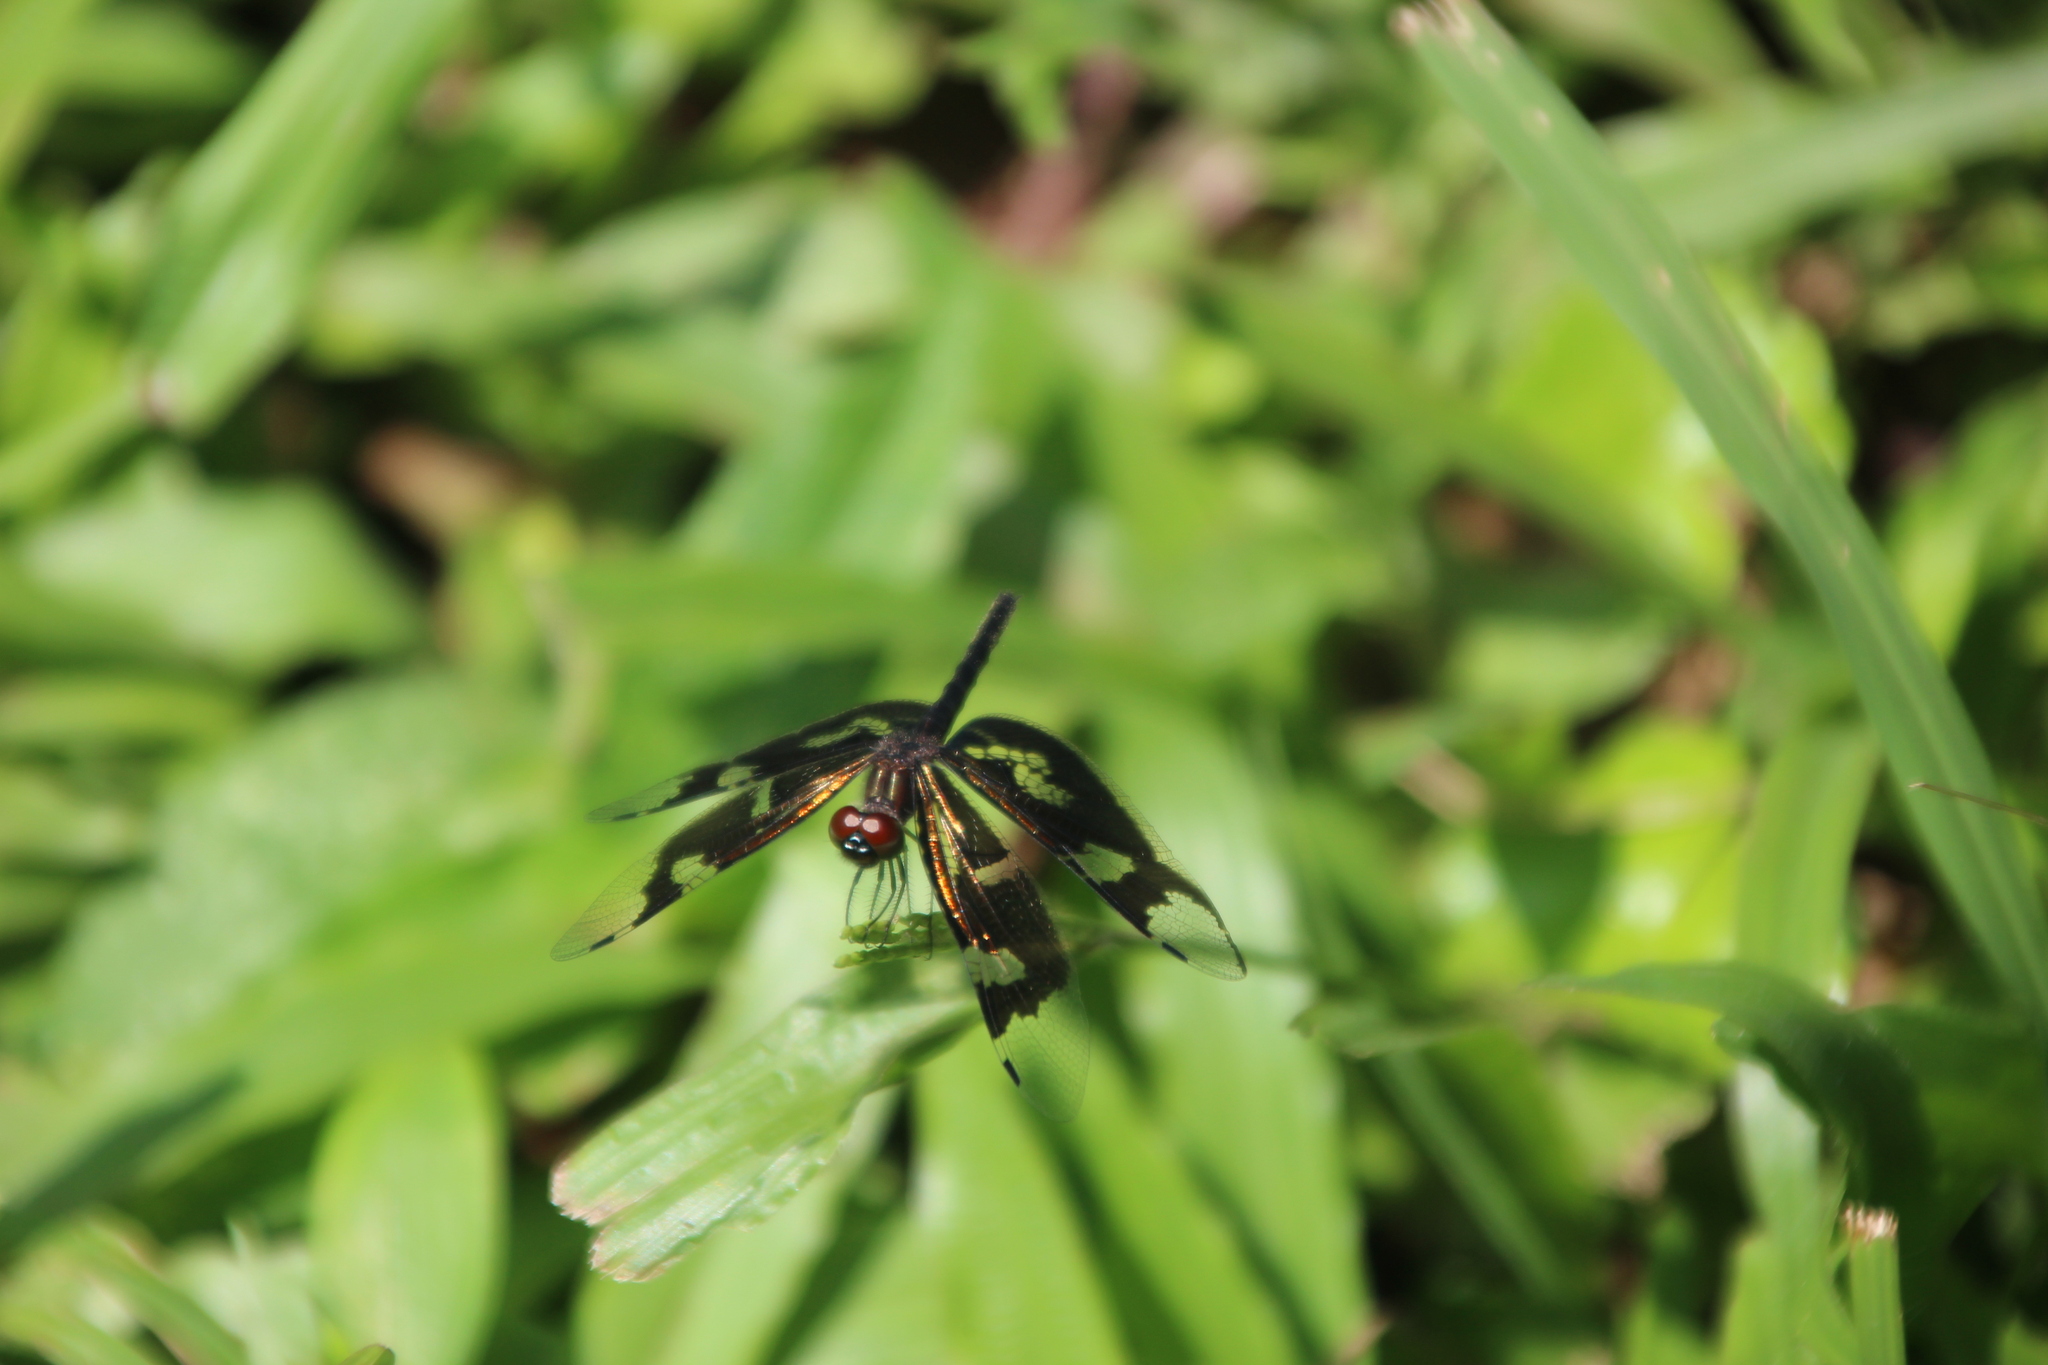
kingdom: Animalia
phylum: Arthropoda
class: Insecta
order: Odonata
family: Libellulidae
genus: Rhyothemis
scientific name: Rhyothemis fenestrina
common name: Skylight flutterer
